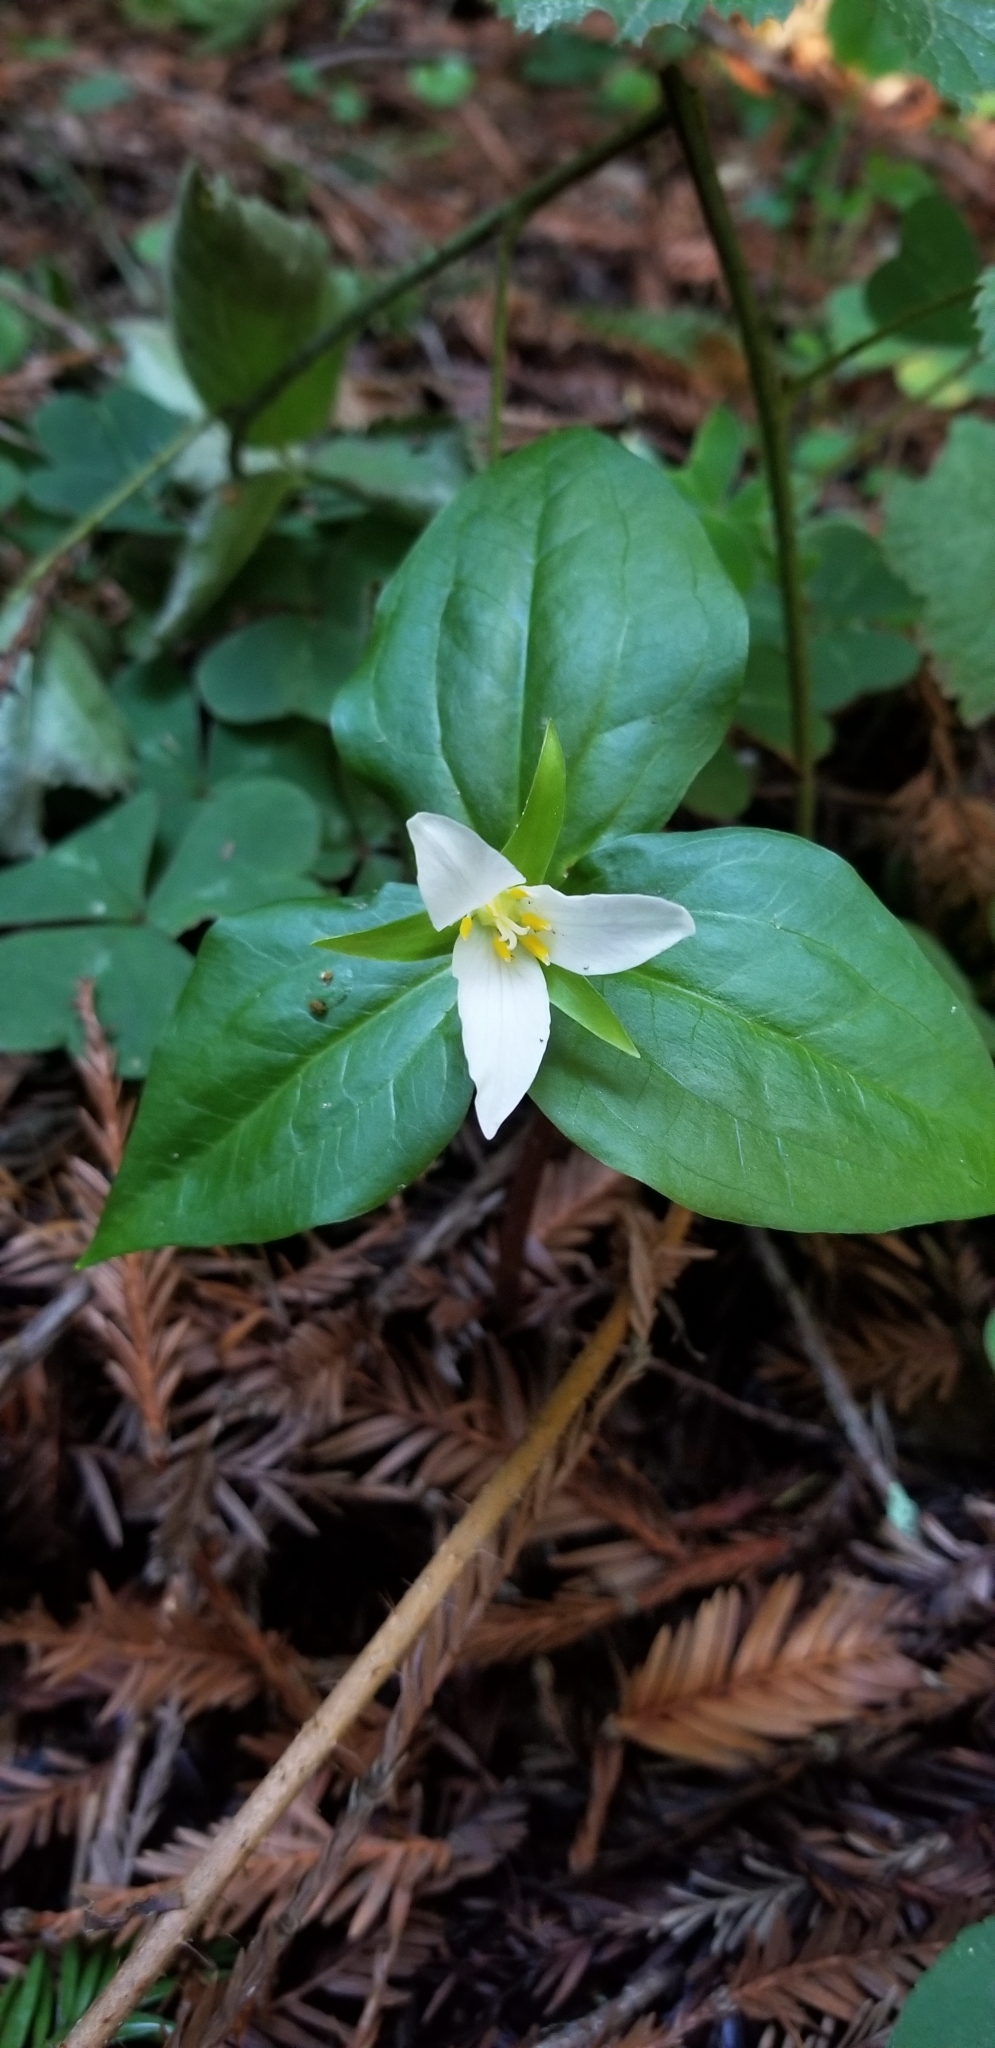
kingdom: Plantae
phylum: Tracheophyta
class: Liliopsida
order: Liliales
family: Melanthiaceae
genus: Trillium
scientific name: Trillium ovatum
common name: Pacific trillium
